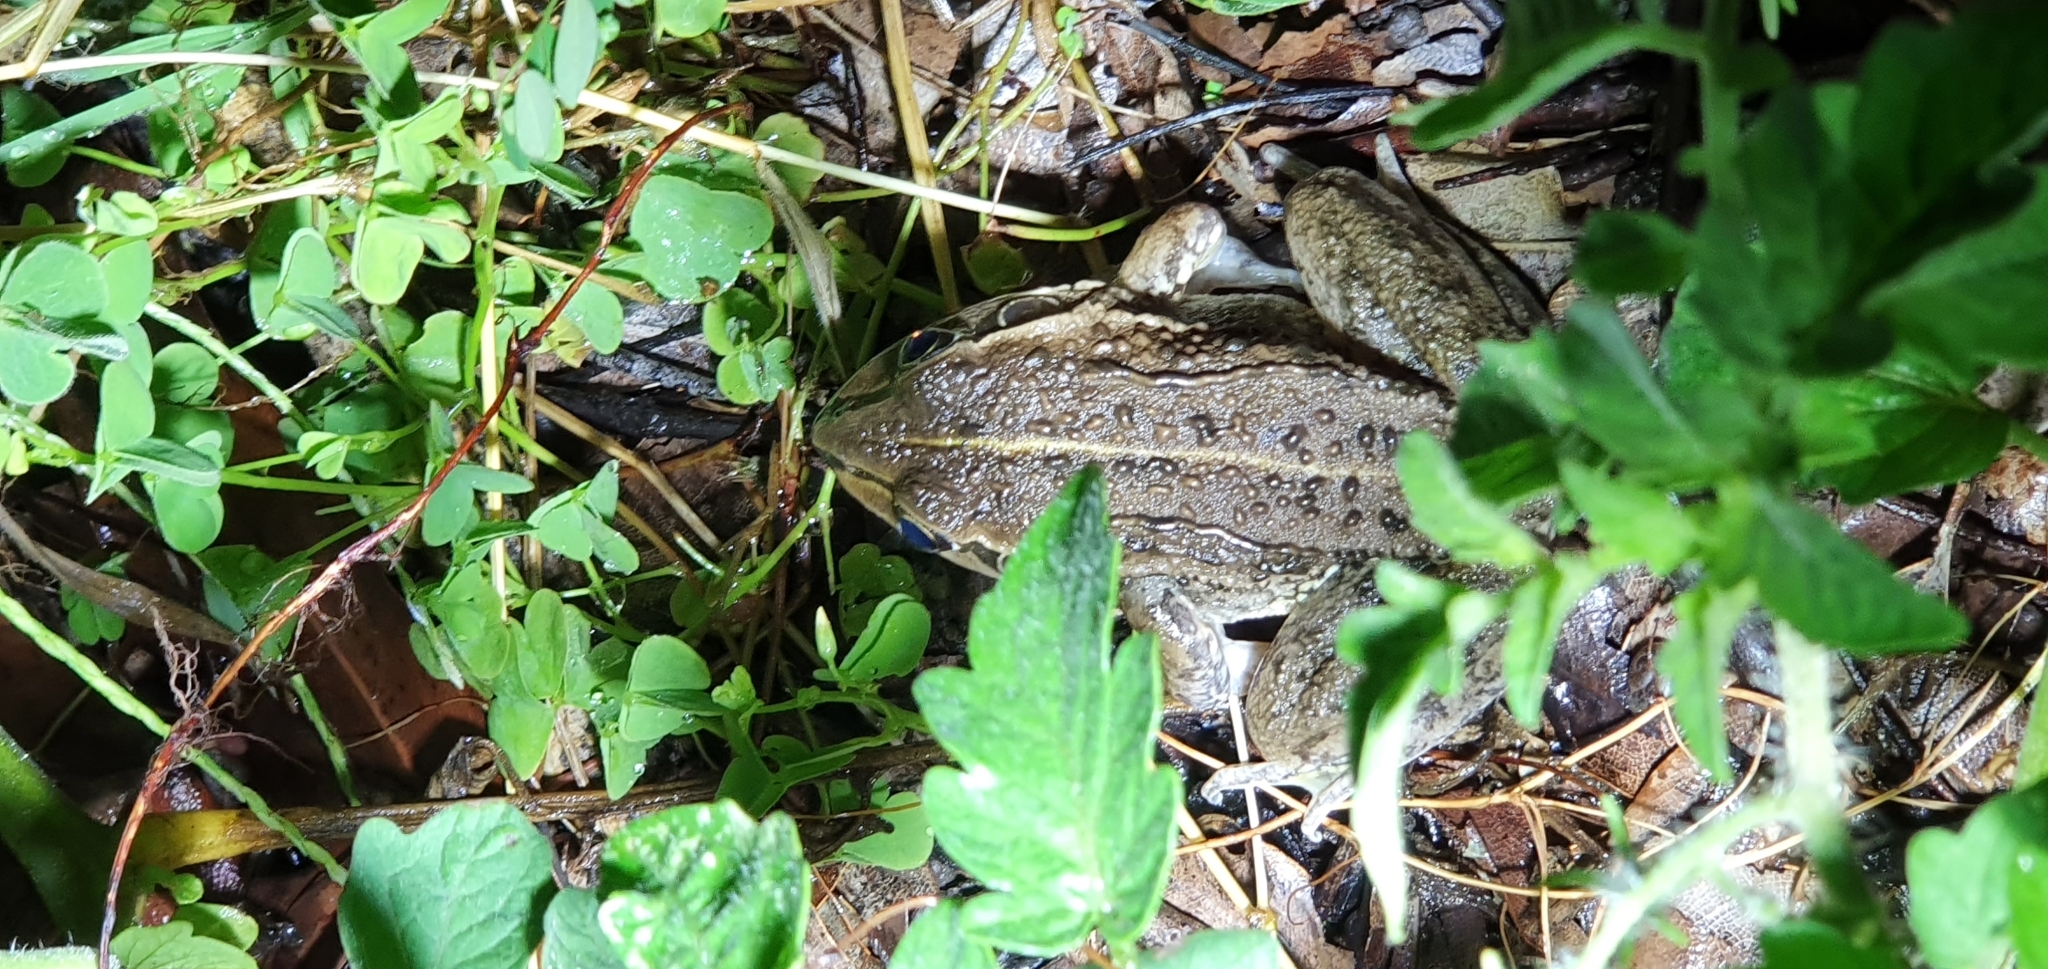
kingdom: Animalia
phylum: Chordata
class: Amphibia
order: Anura
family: Pelodryadidae
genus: Ranoidea
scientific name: Ranoidea alboguttata
